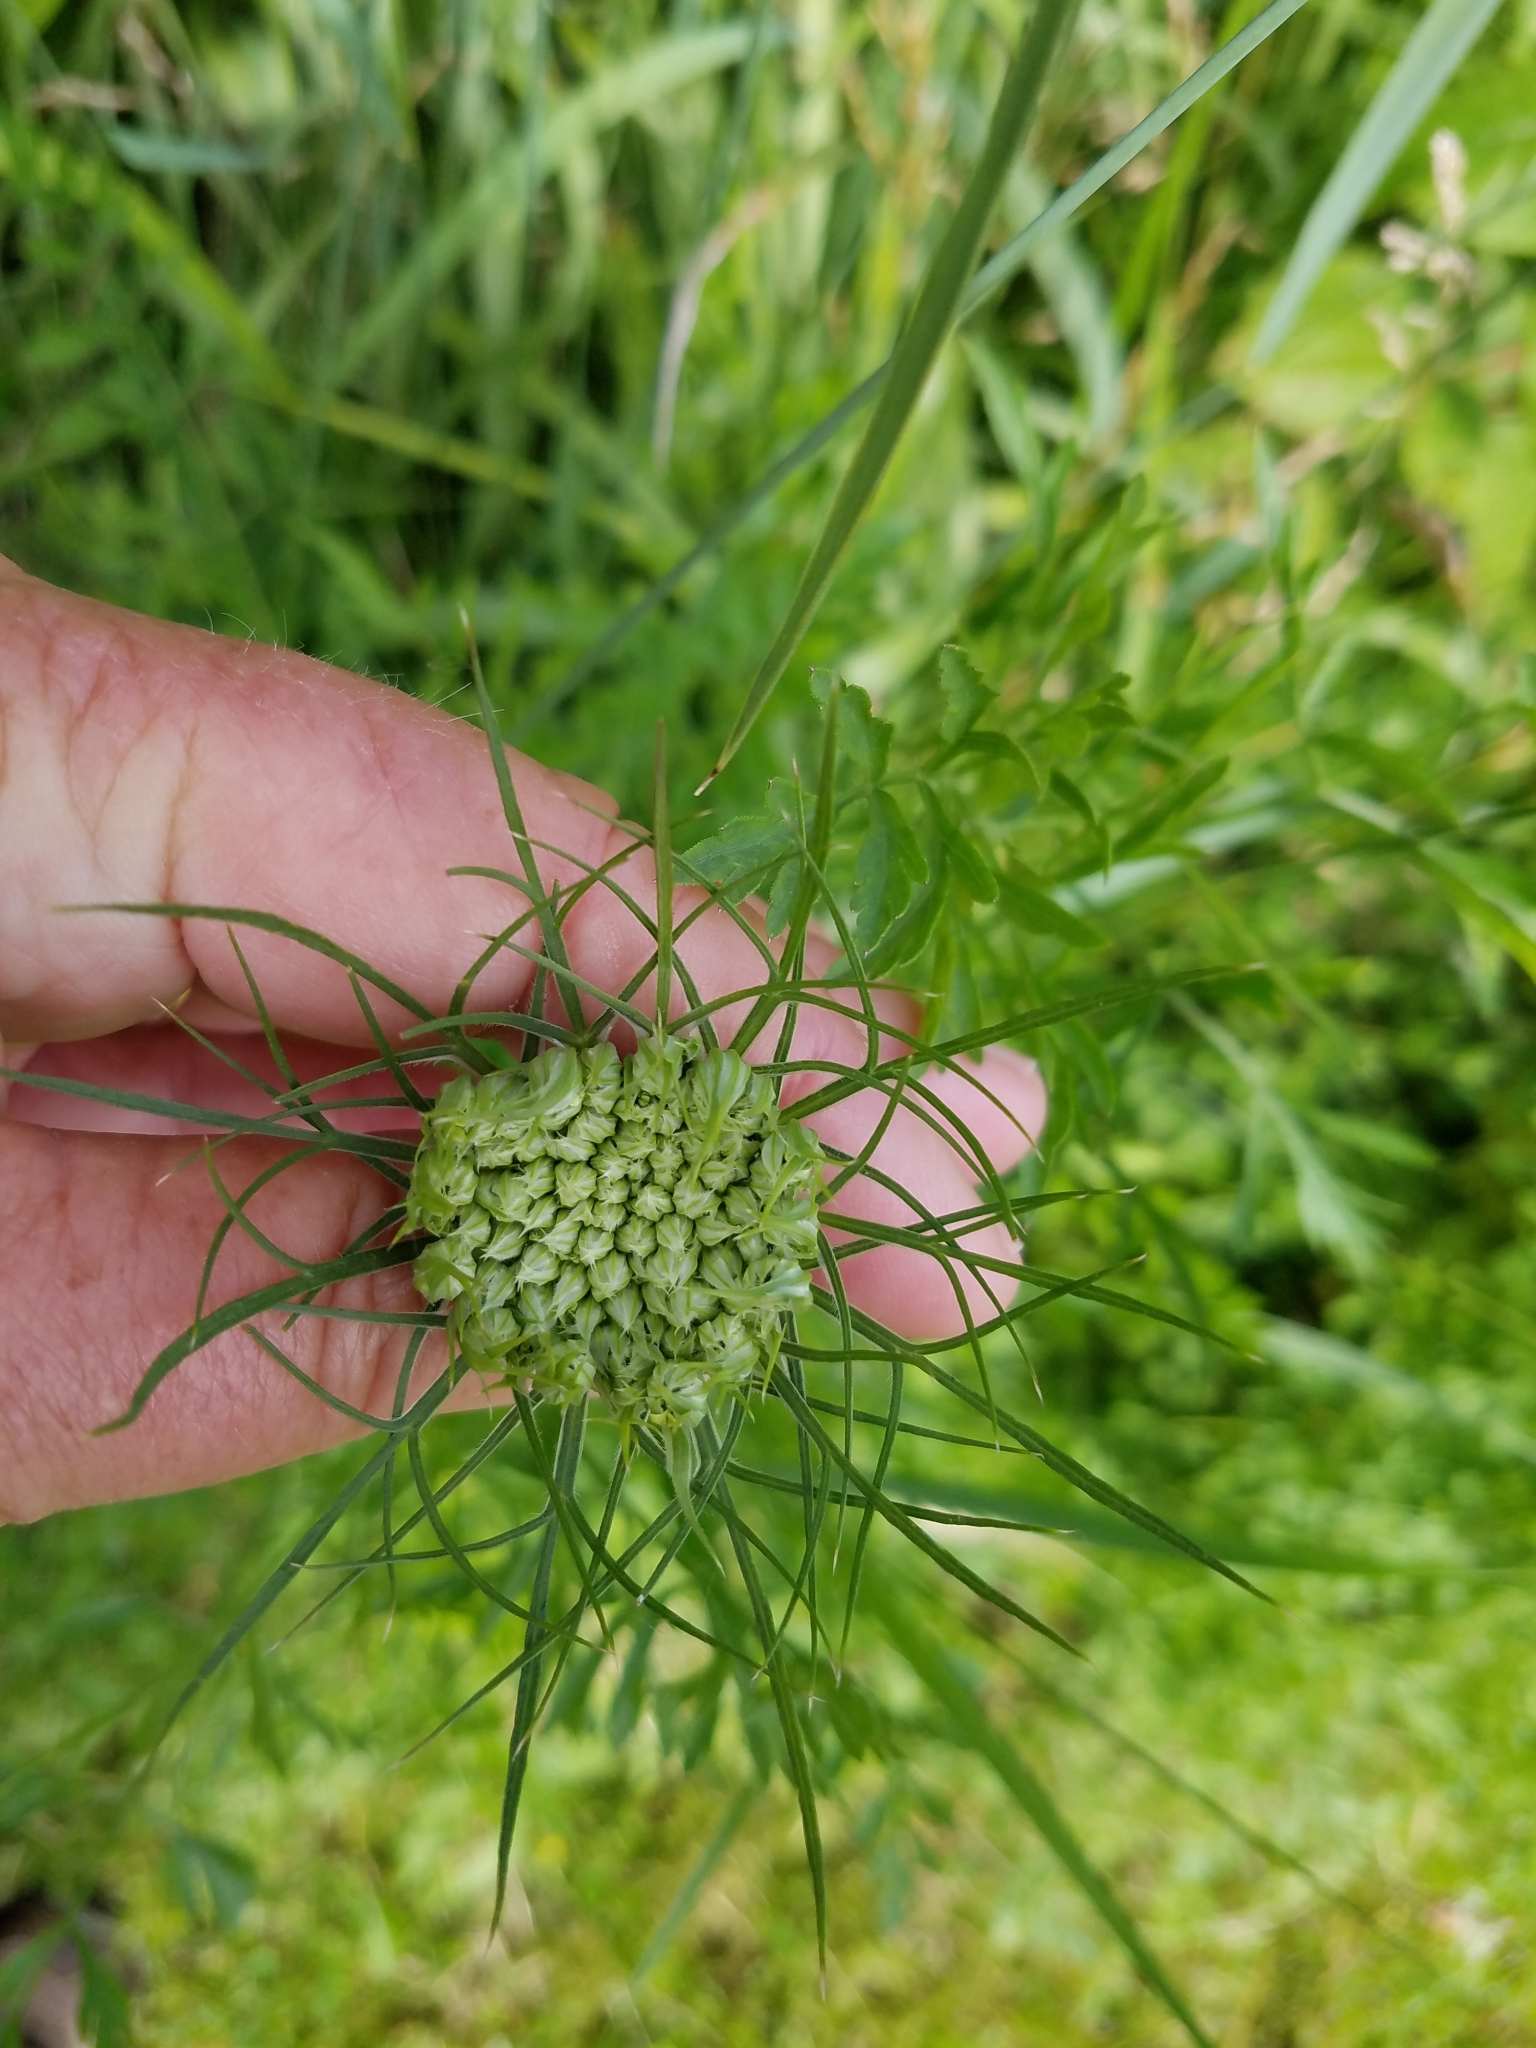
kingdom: Plantae
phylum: Tracheophyta
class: Magnoliopsida
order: Apiales
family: Apiaceae
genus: Daucus
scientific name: Daucus carota
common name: Wild carrot
